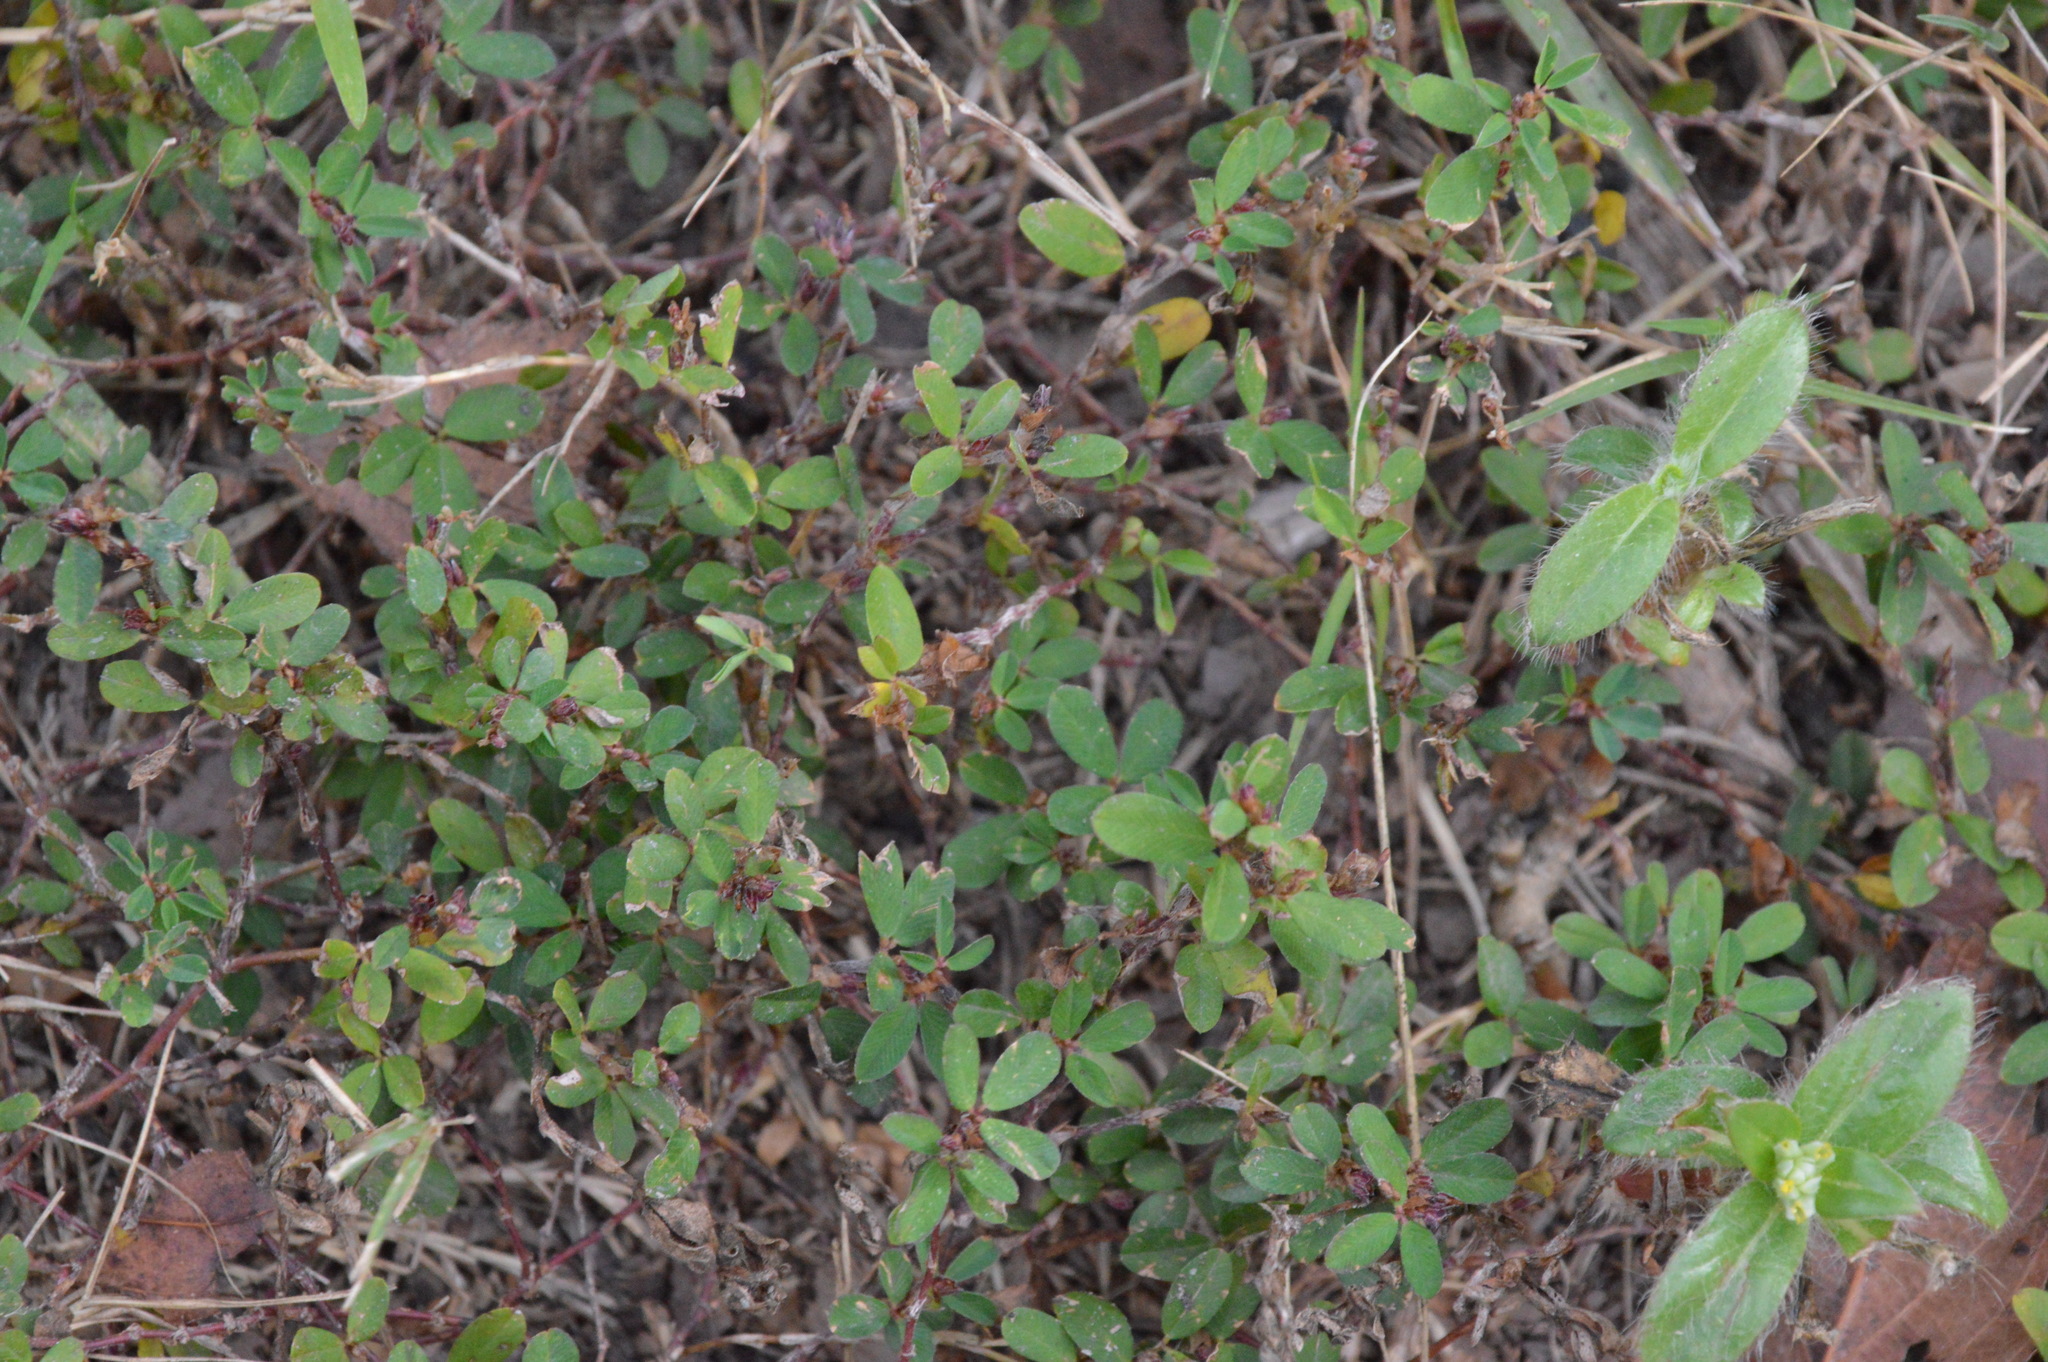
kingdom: Plantae
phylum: Tracheophyta
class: Magnoliopsida
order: Fabales
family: Fabaceae
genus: Kummerowia
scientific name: Kummerowia striata
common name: Japanese clover
